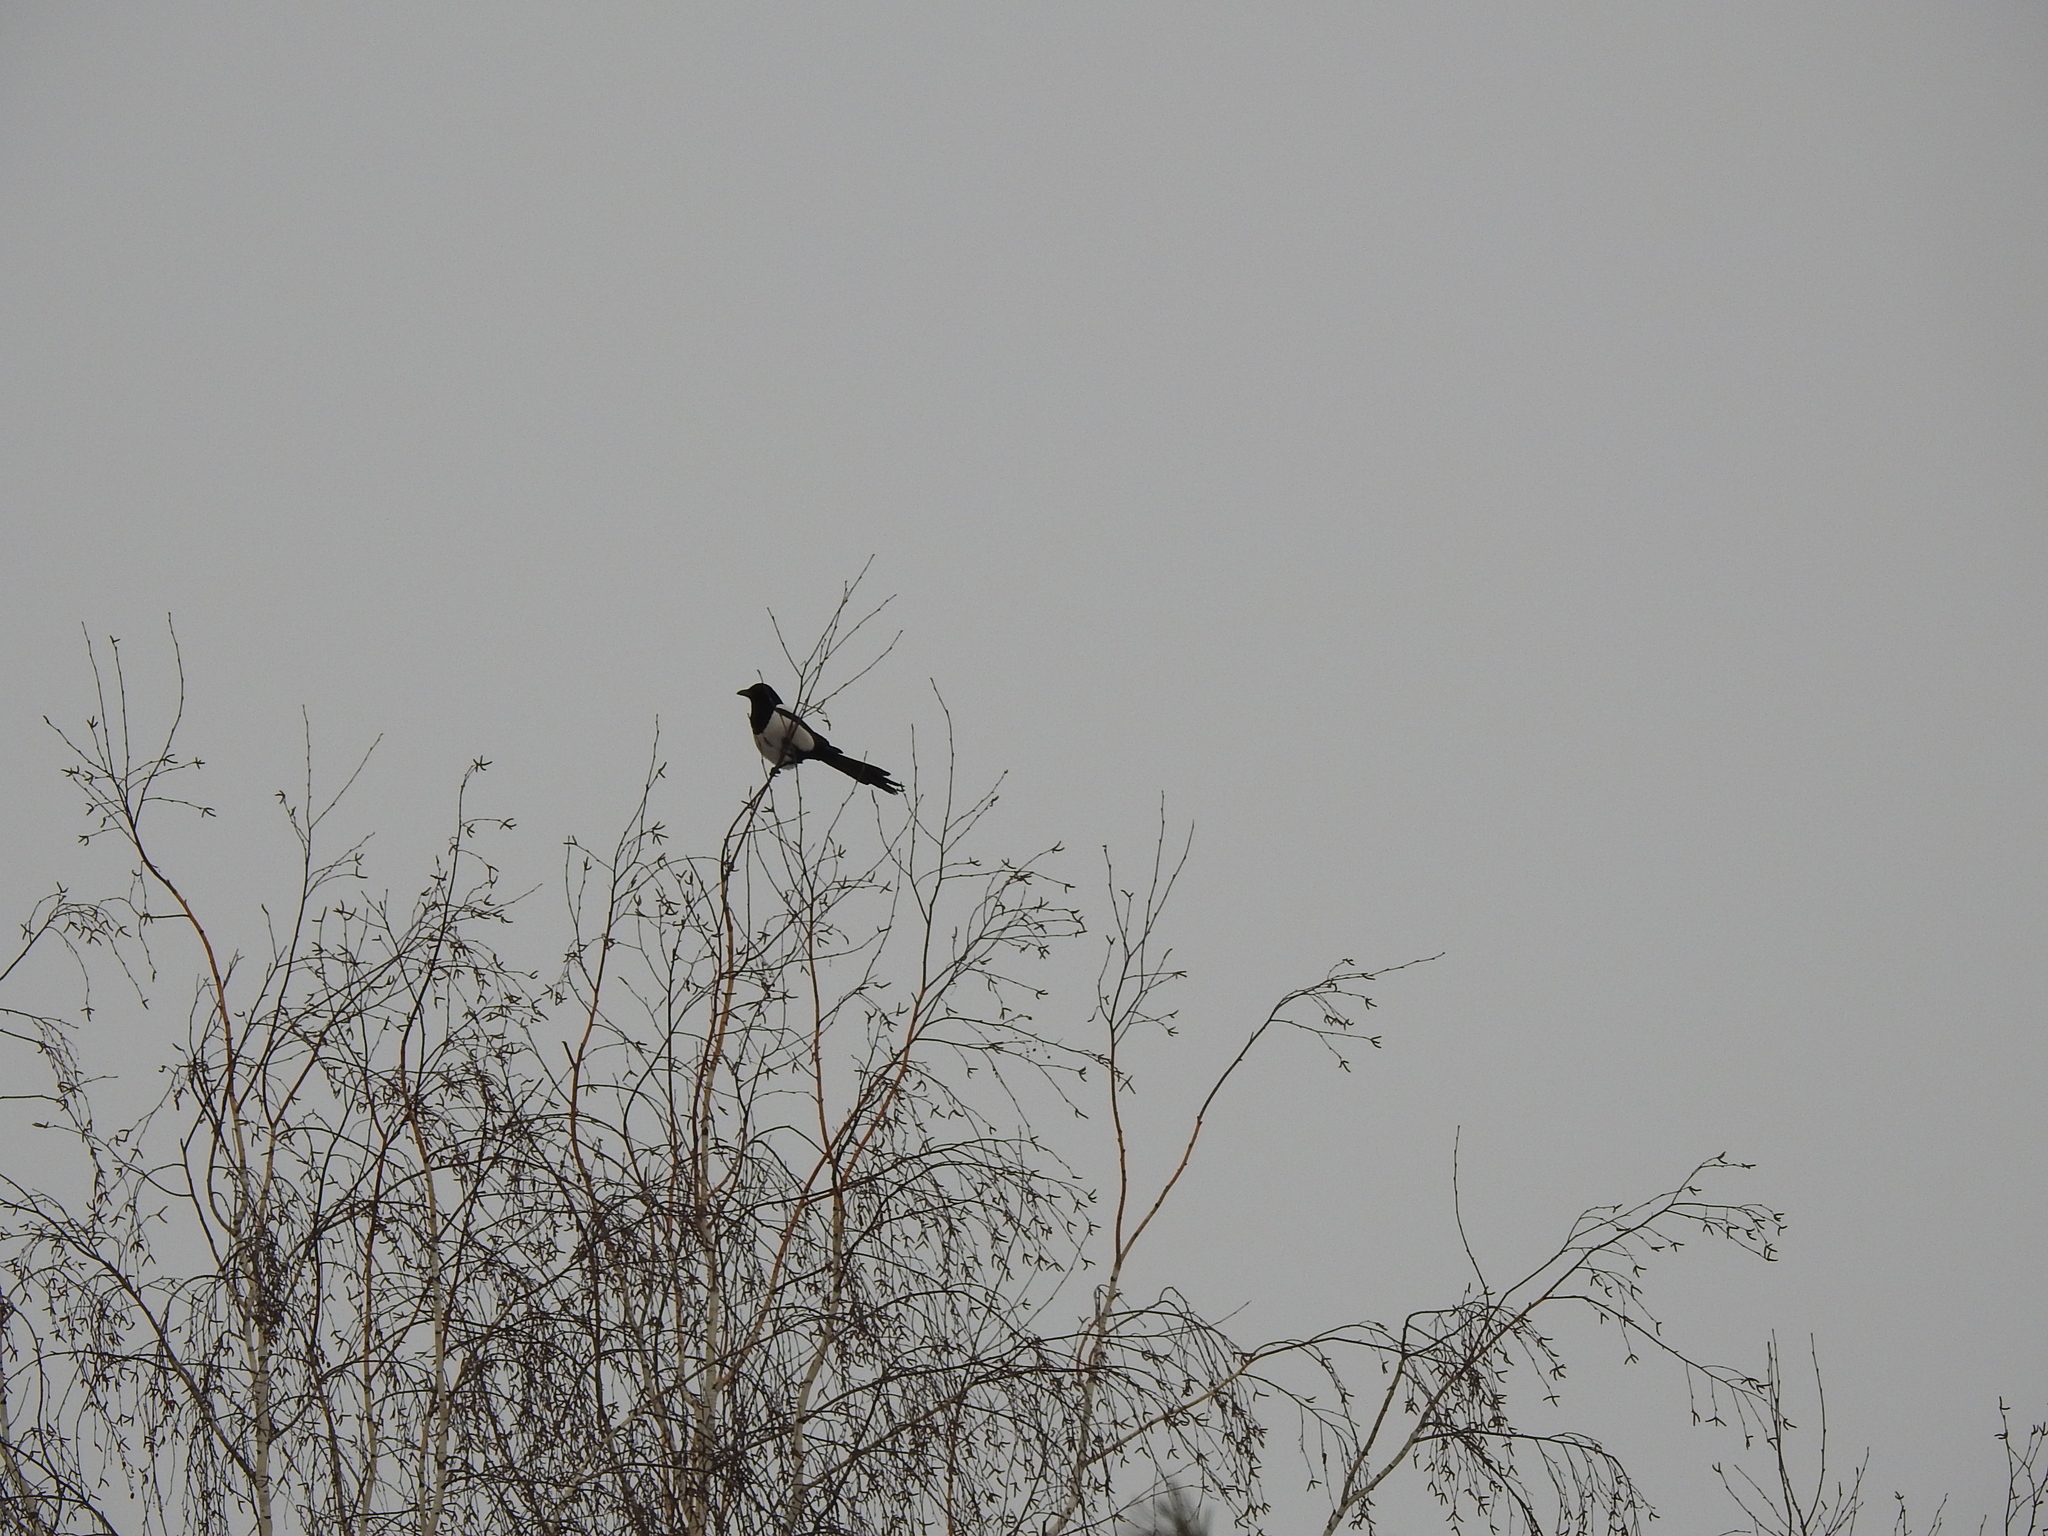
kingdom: Animalia
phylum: Chordata
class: Aves
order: Passeriformes
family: Corvidae
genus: Pica
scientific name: Pica pica
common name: Eurasian magpie
